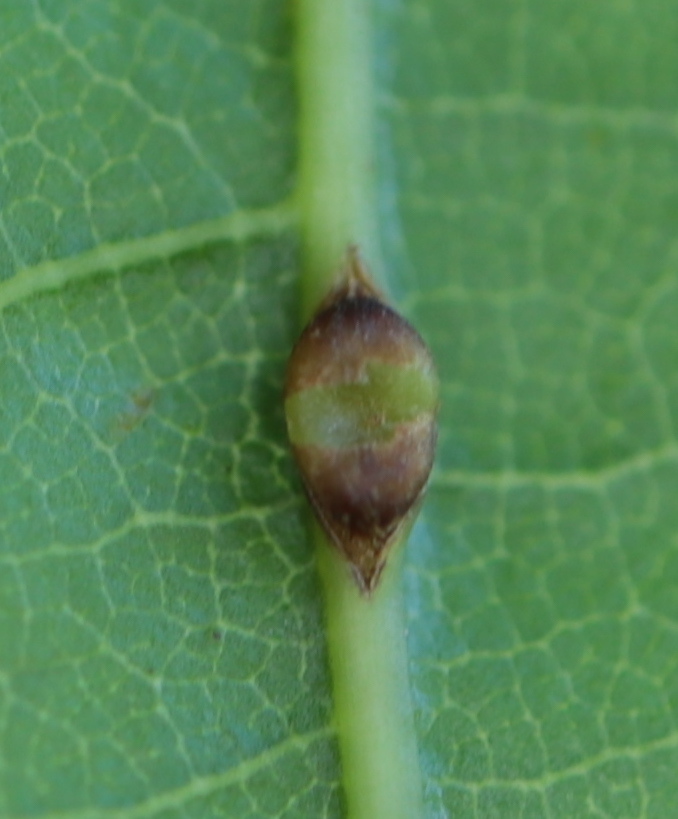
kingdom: Animalia
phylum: Arthropoda
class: Insecta
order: Hymenoptera
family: Cynipidae
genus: Kokkocynips
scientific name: Kokkocynips rileyi
